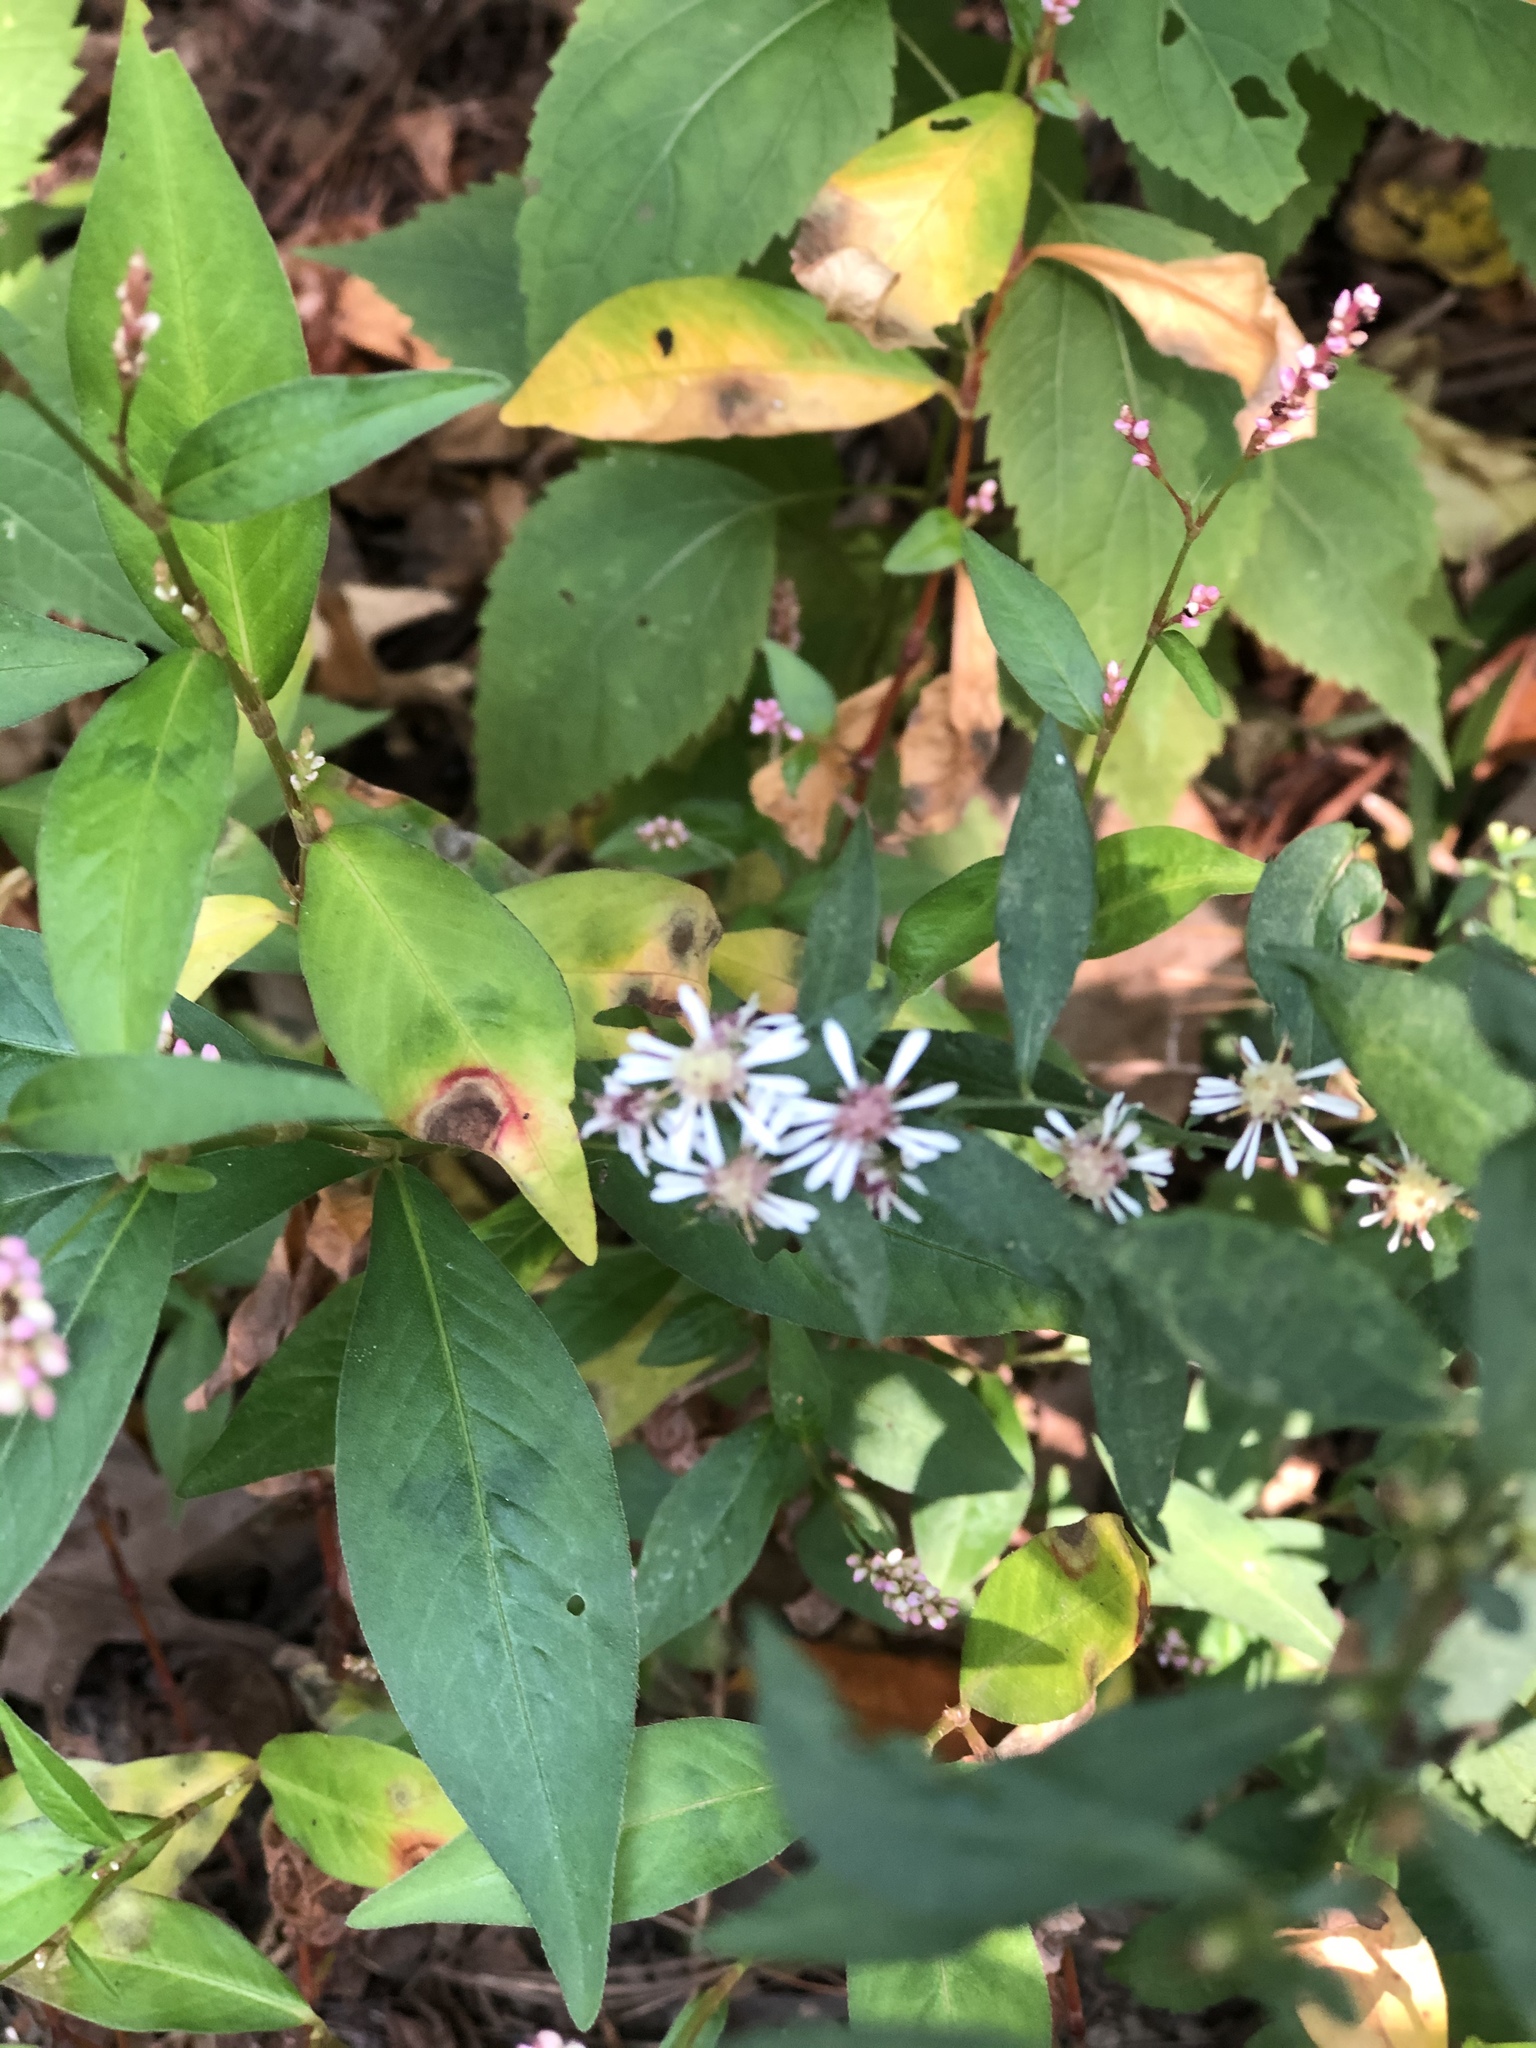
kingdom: Plantae
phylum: Tracheophyta
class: Magnoliopsida
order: Asterales
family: Asteraceae
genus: Symphyotrichum
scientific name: Symphyotrichum lateriflorum
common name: Calico aster
